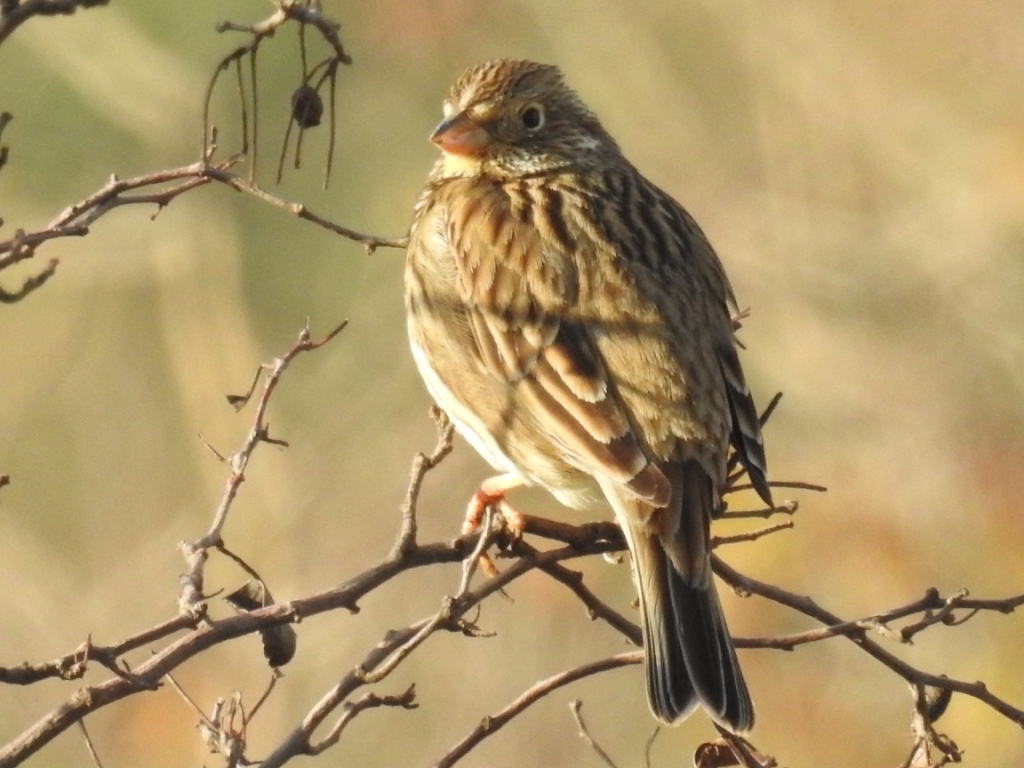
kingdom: Animalia
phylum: Chordata
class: Aves
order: Passeriformes
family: Emberizidae
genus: Emberiza
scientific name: Emberiza calandra
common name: Corn bunting
